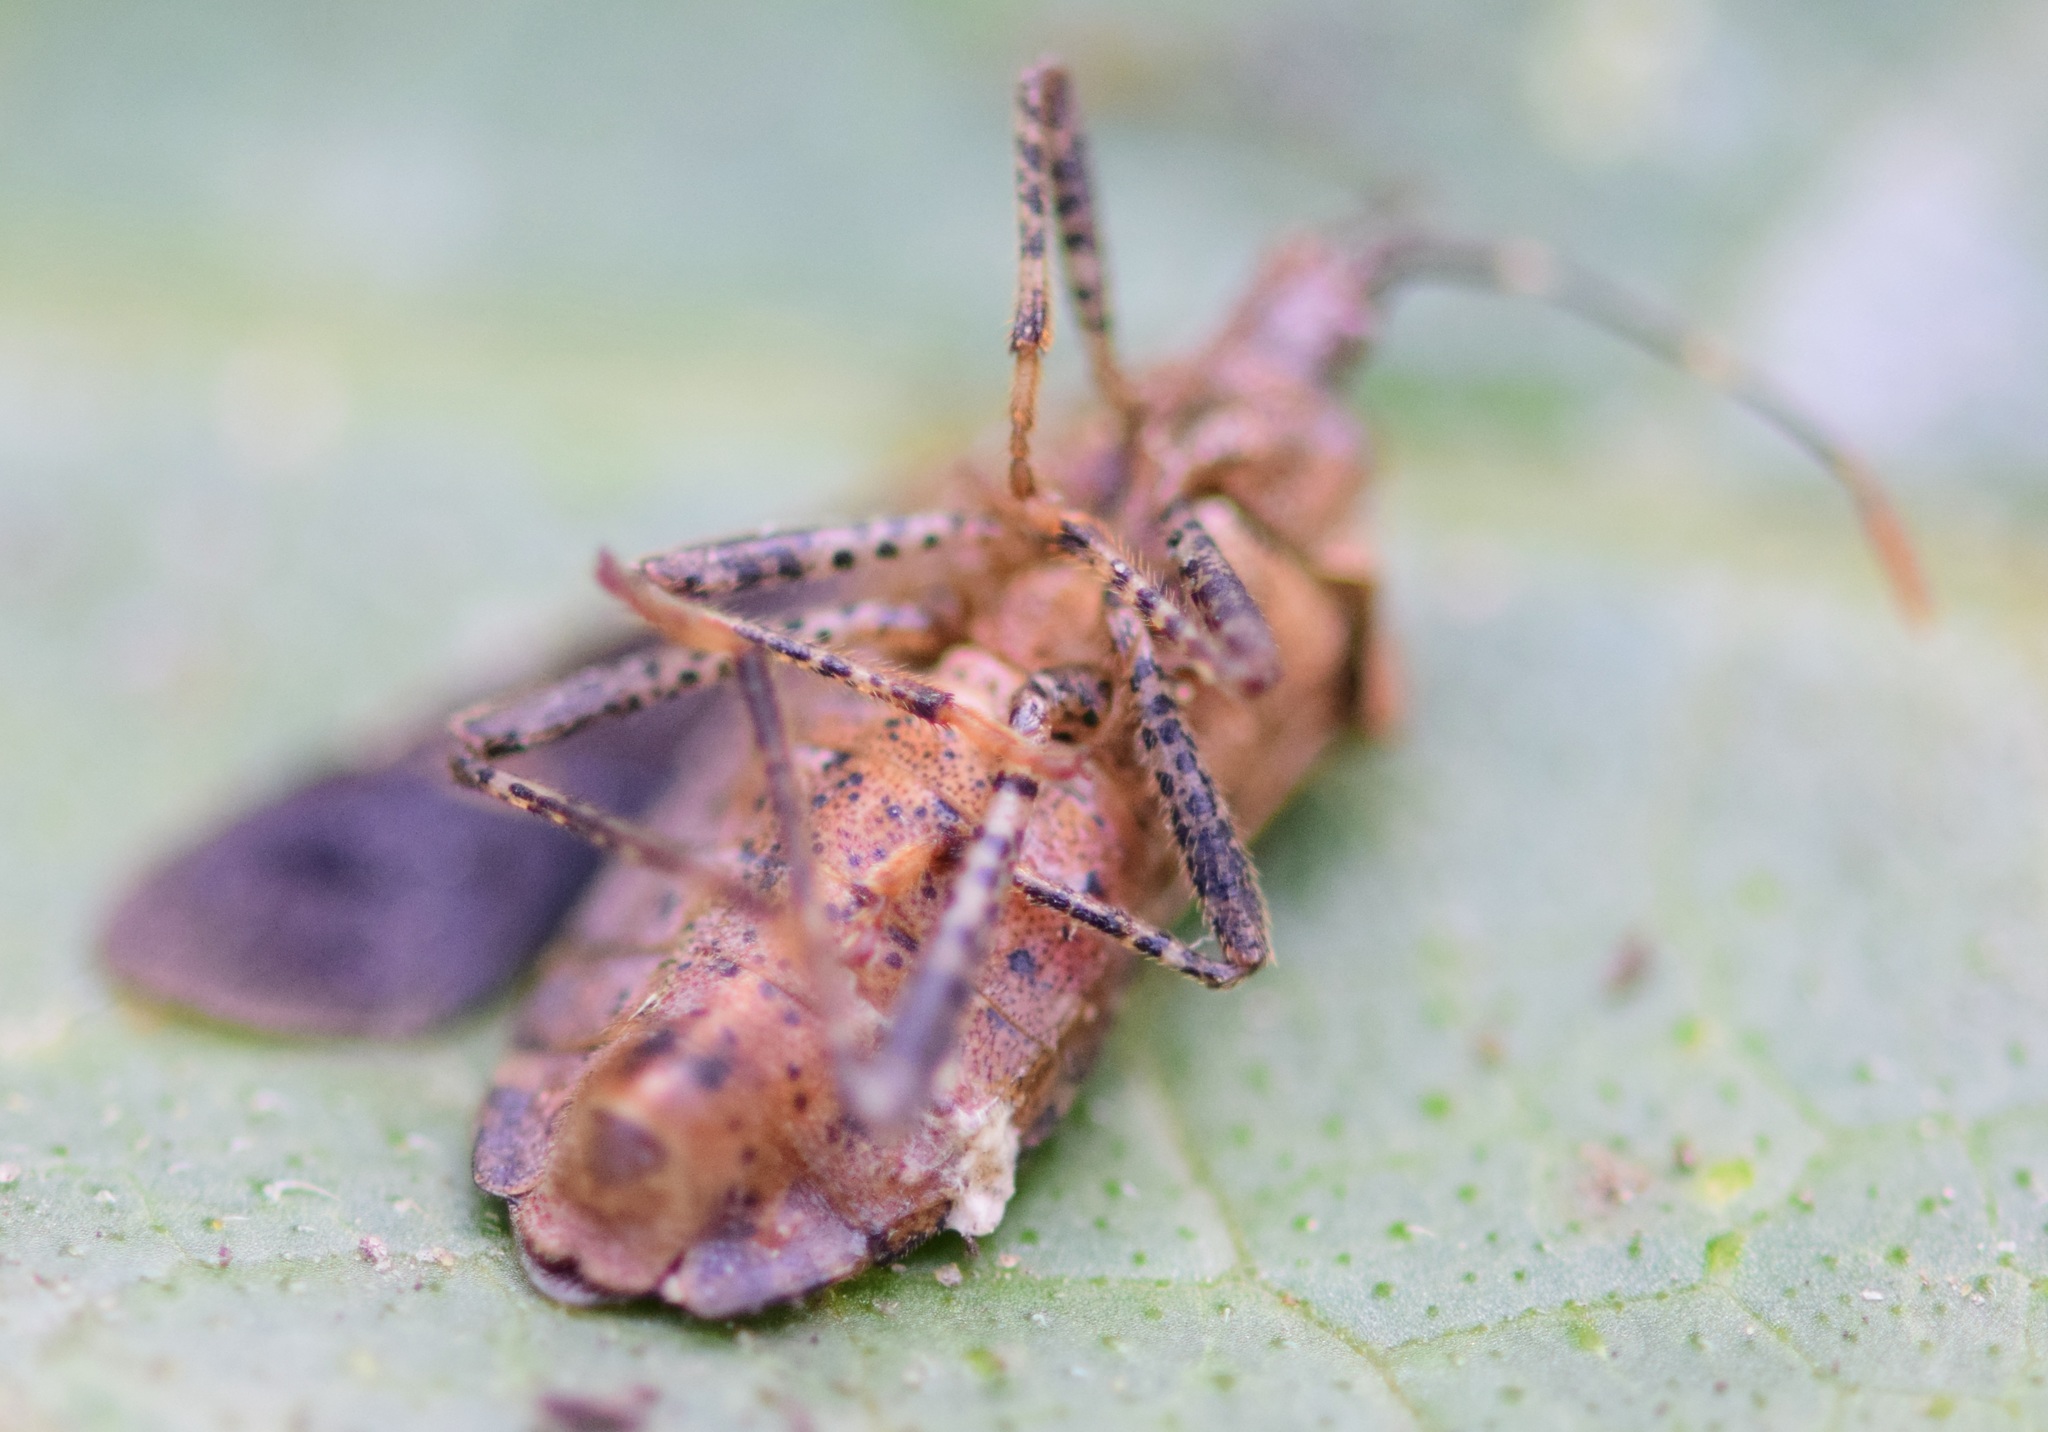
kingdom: Animalia
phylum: Arthropoda
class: Insecta
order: Hemiptera
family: Coreidae
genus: Anasa
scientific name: Anasa armigera
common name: Horned squash bug
